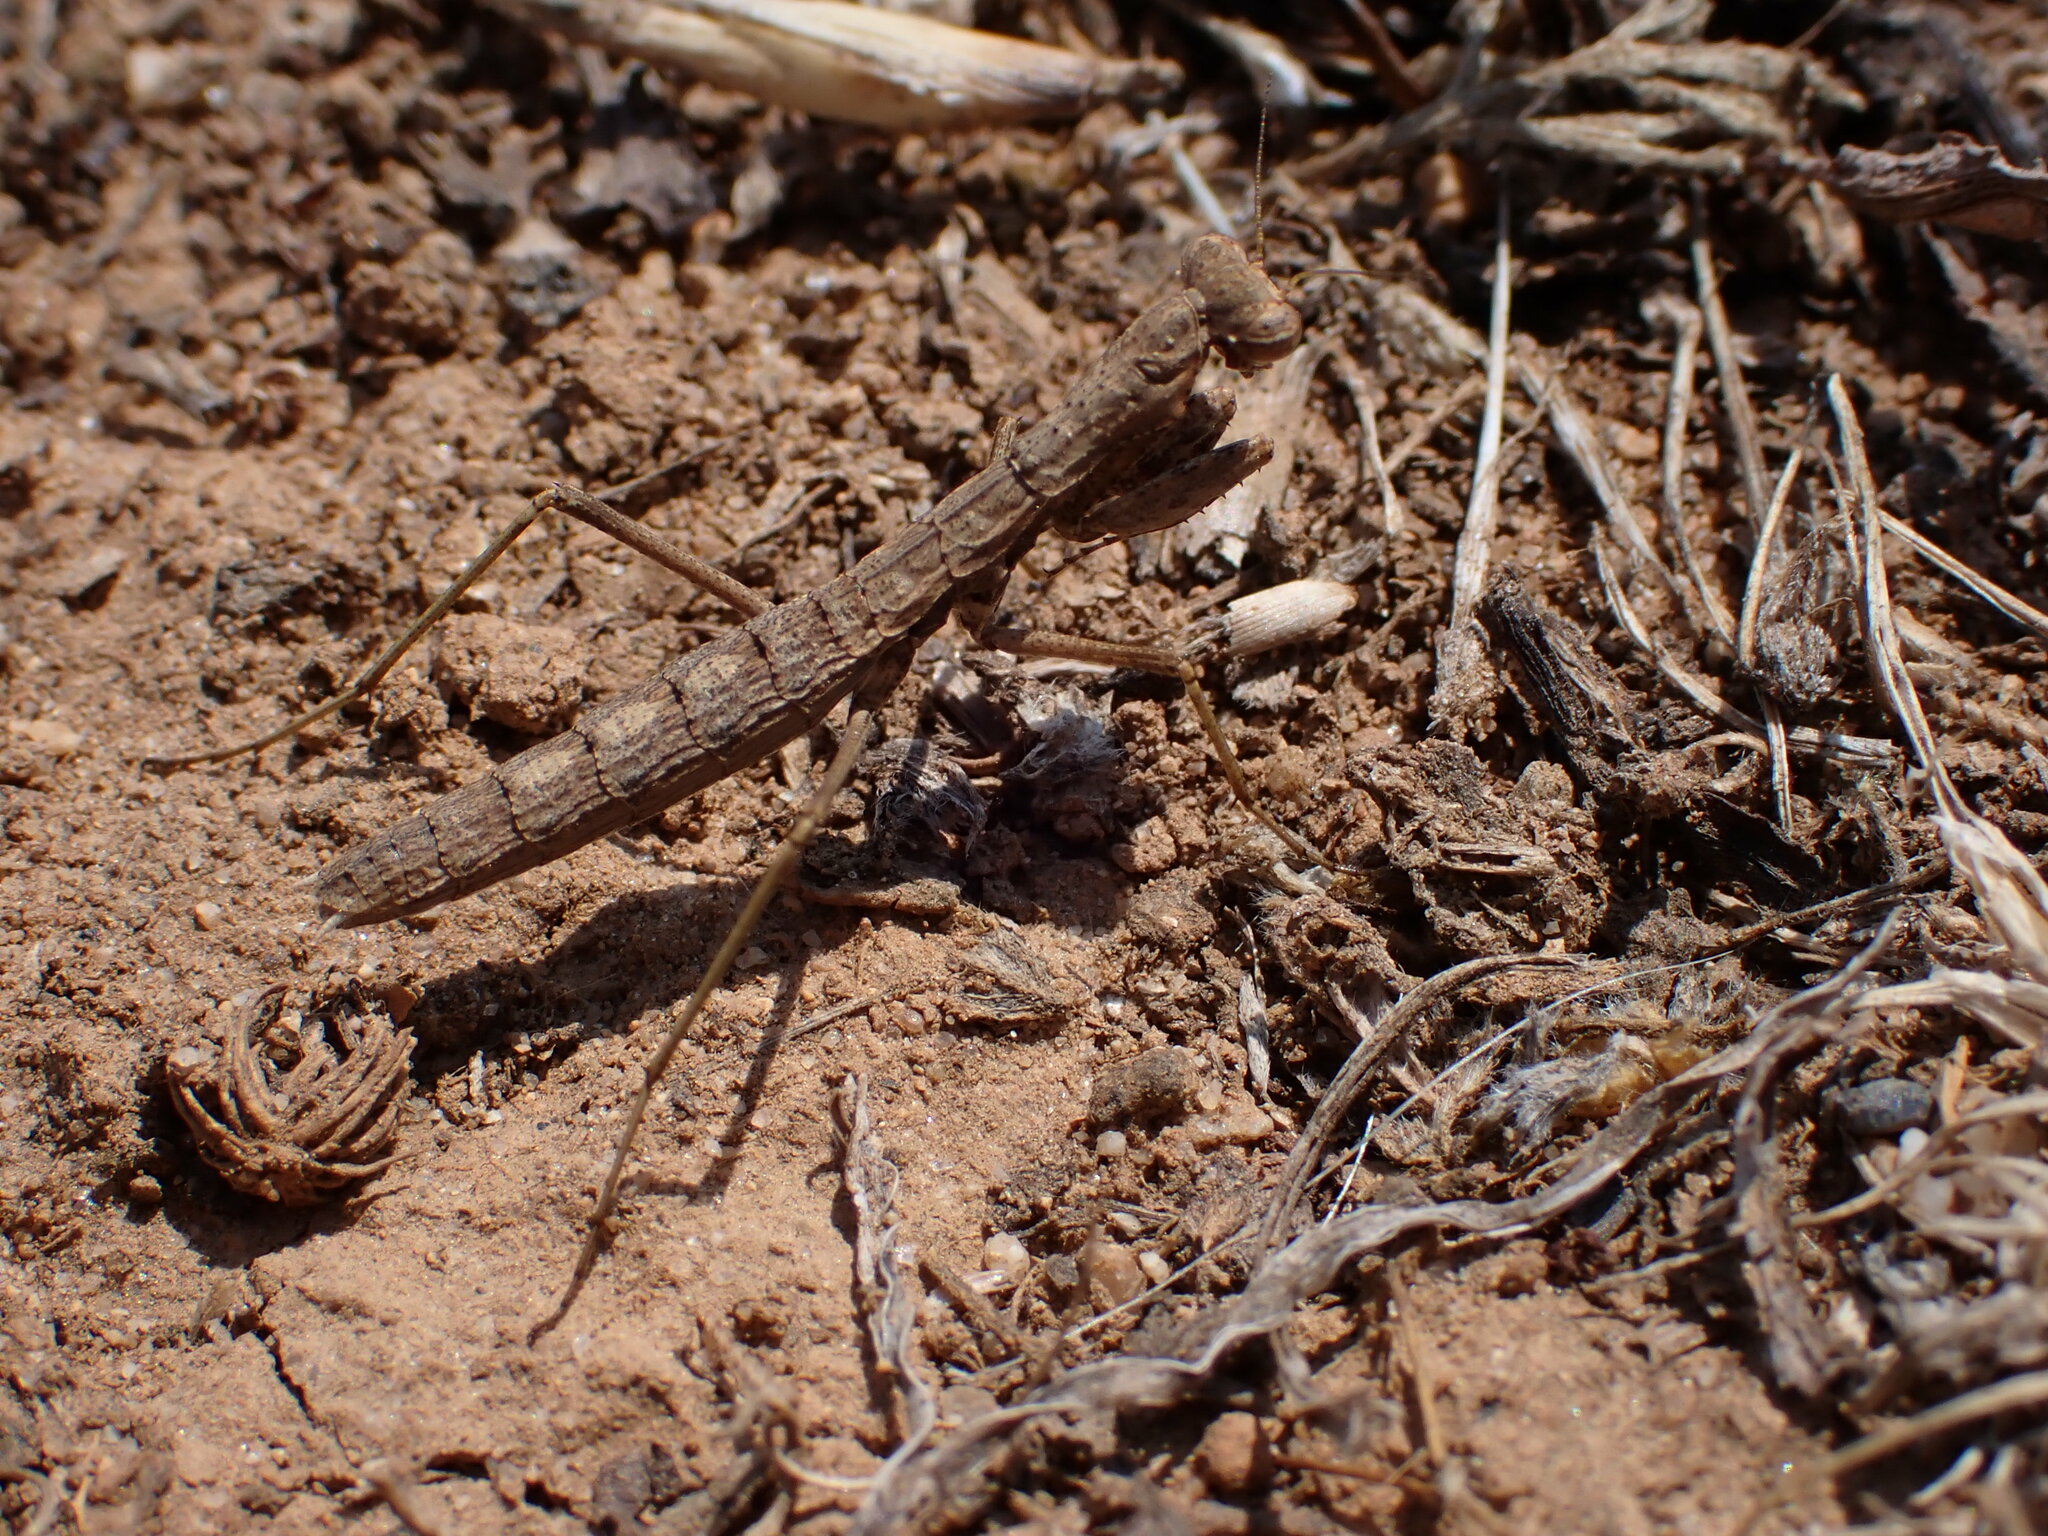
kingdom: Animalia
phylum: Arthropoda
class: Insecta
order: Mantodea
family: Rivetinidae
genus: Geomantis
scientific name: Geomantis larvoides
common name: Wingless ground mantis
